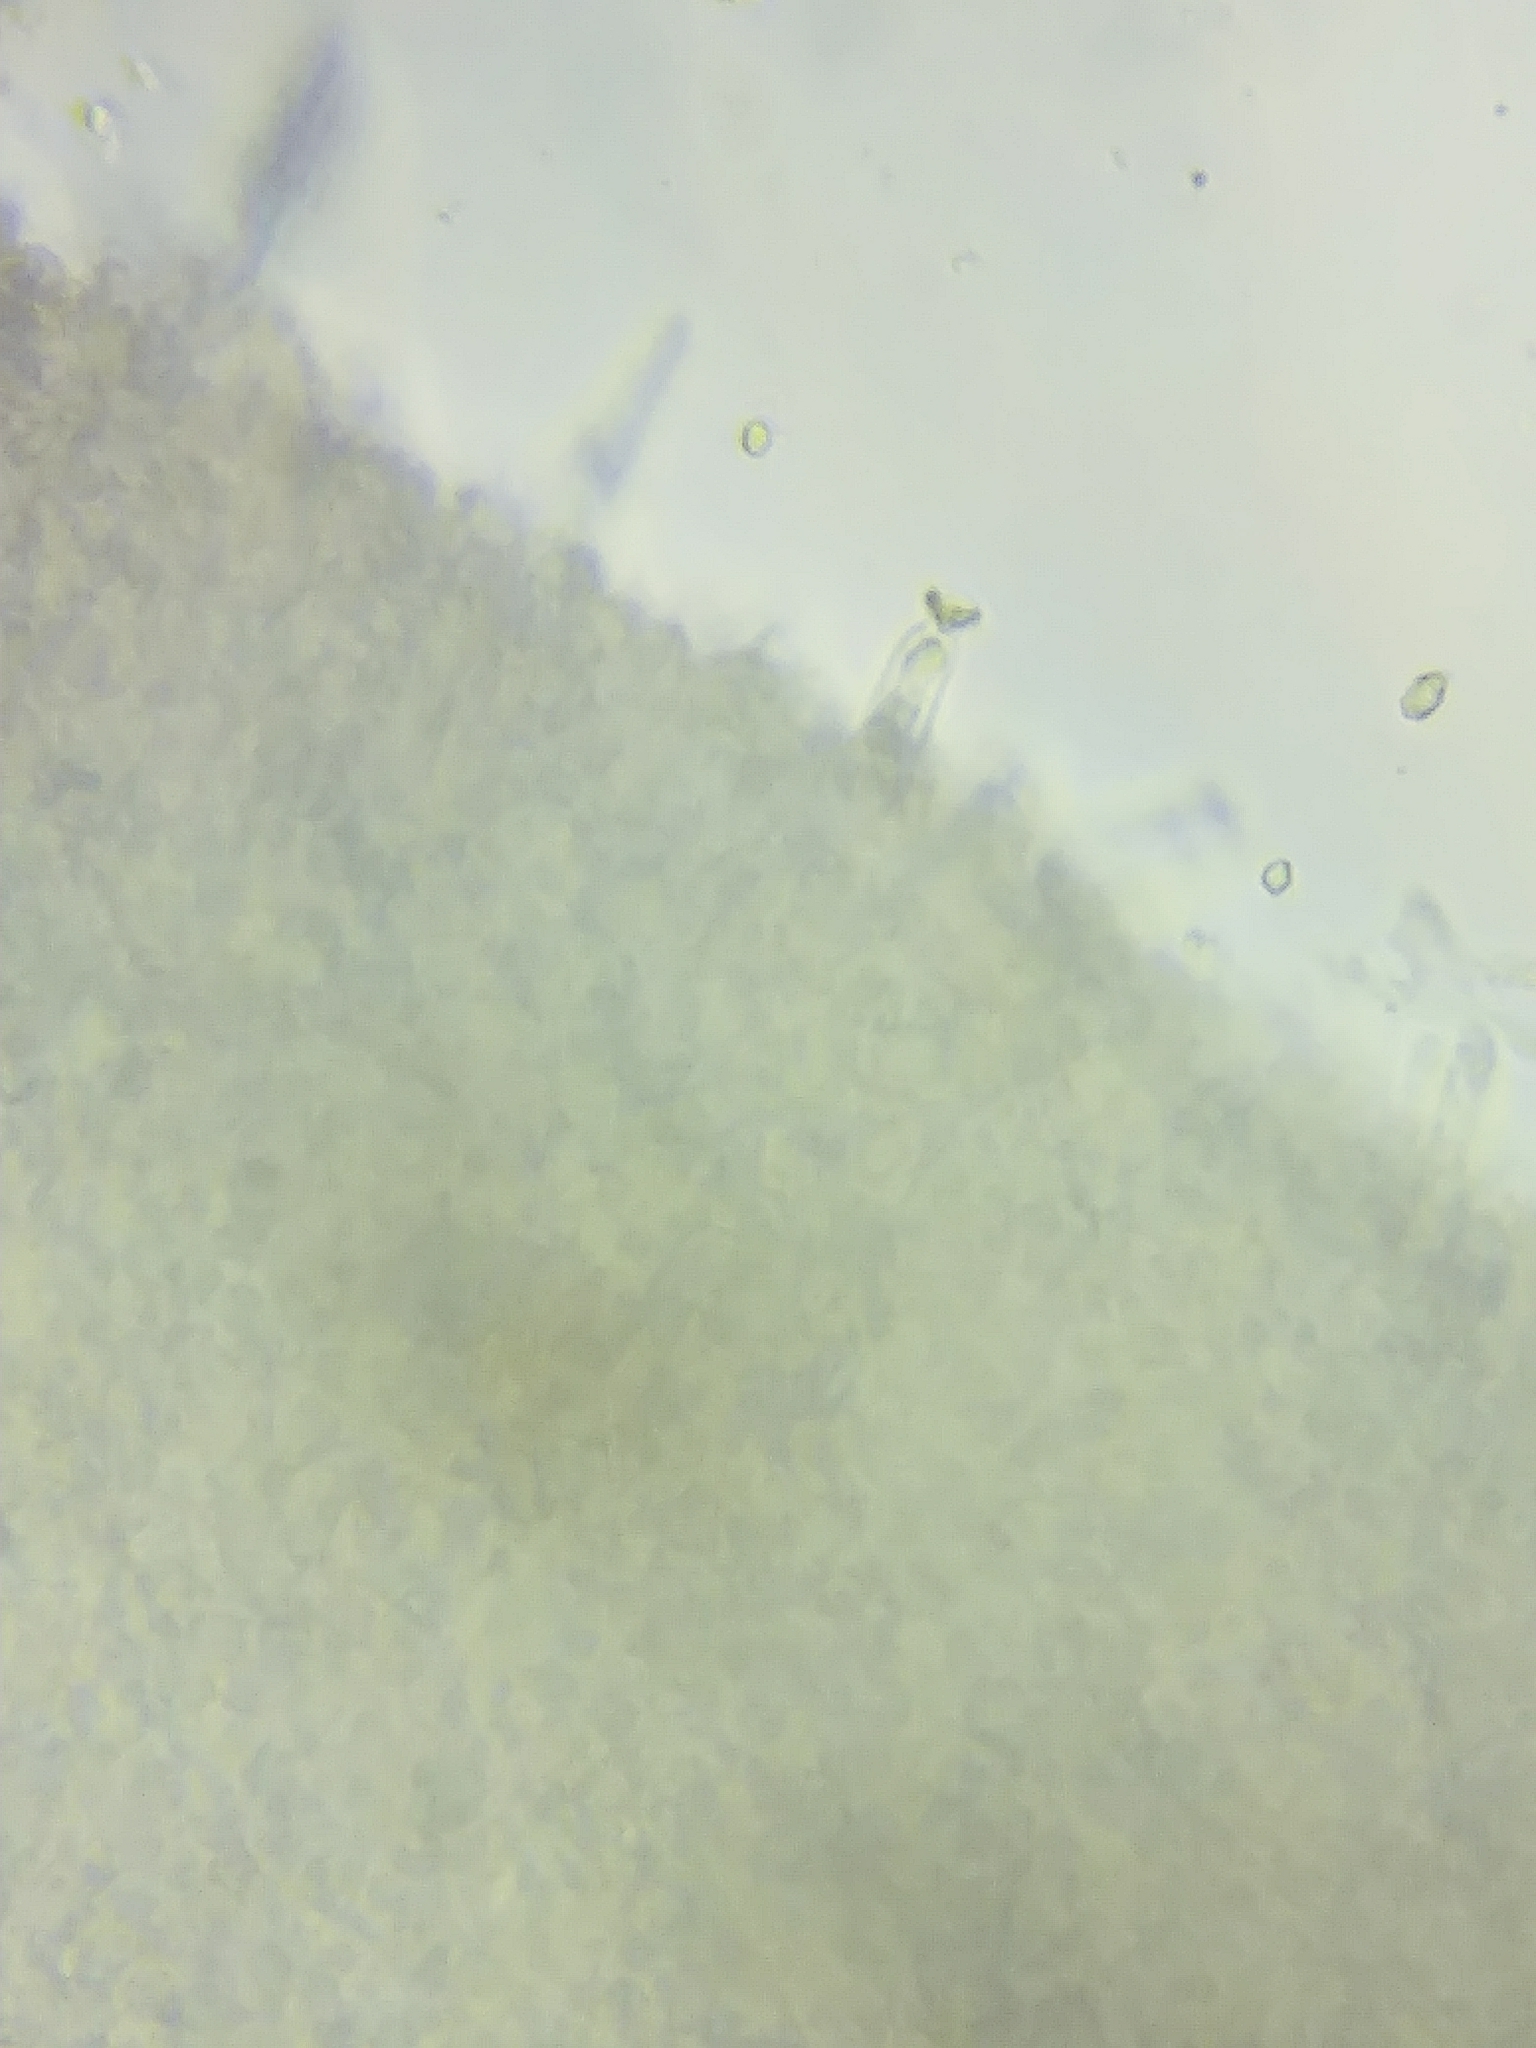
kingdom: Fungi
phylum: Basidiomycota
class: Agaricomycetes
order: Agaricales
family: Physalacriaceae
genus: Rhizomarasmius
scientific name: Rhizomarasmius pyrrhocephalus
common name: Hairy long stem marasmius
